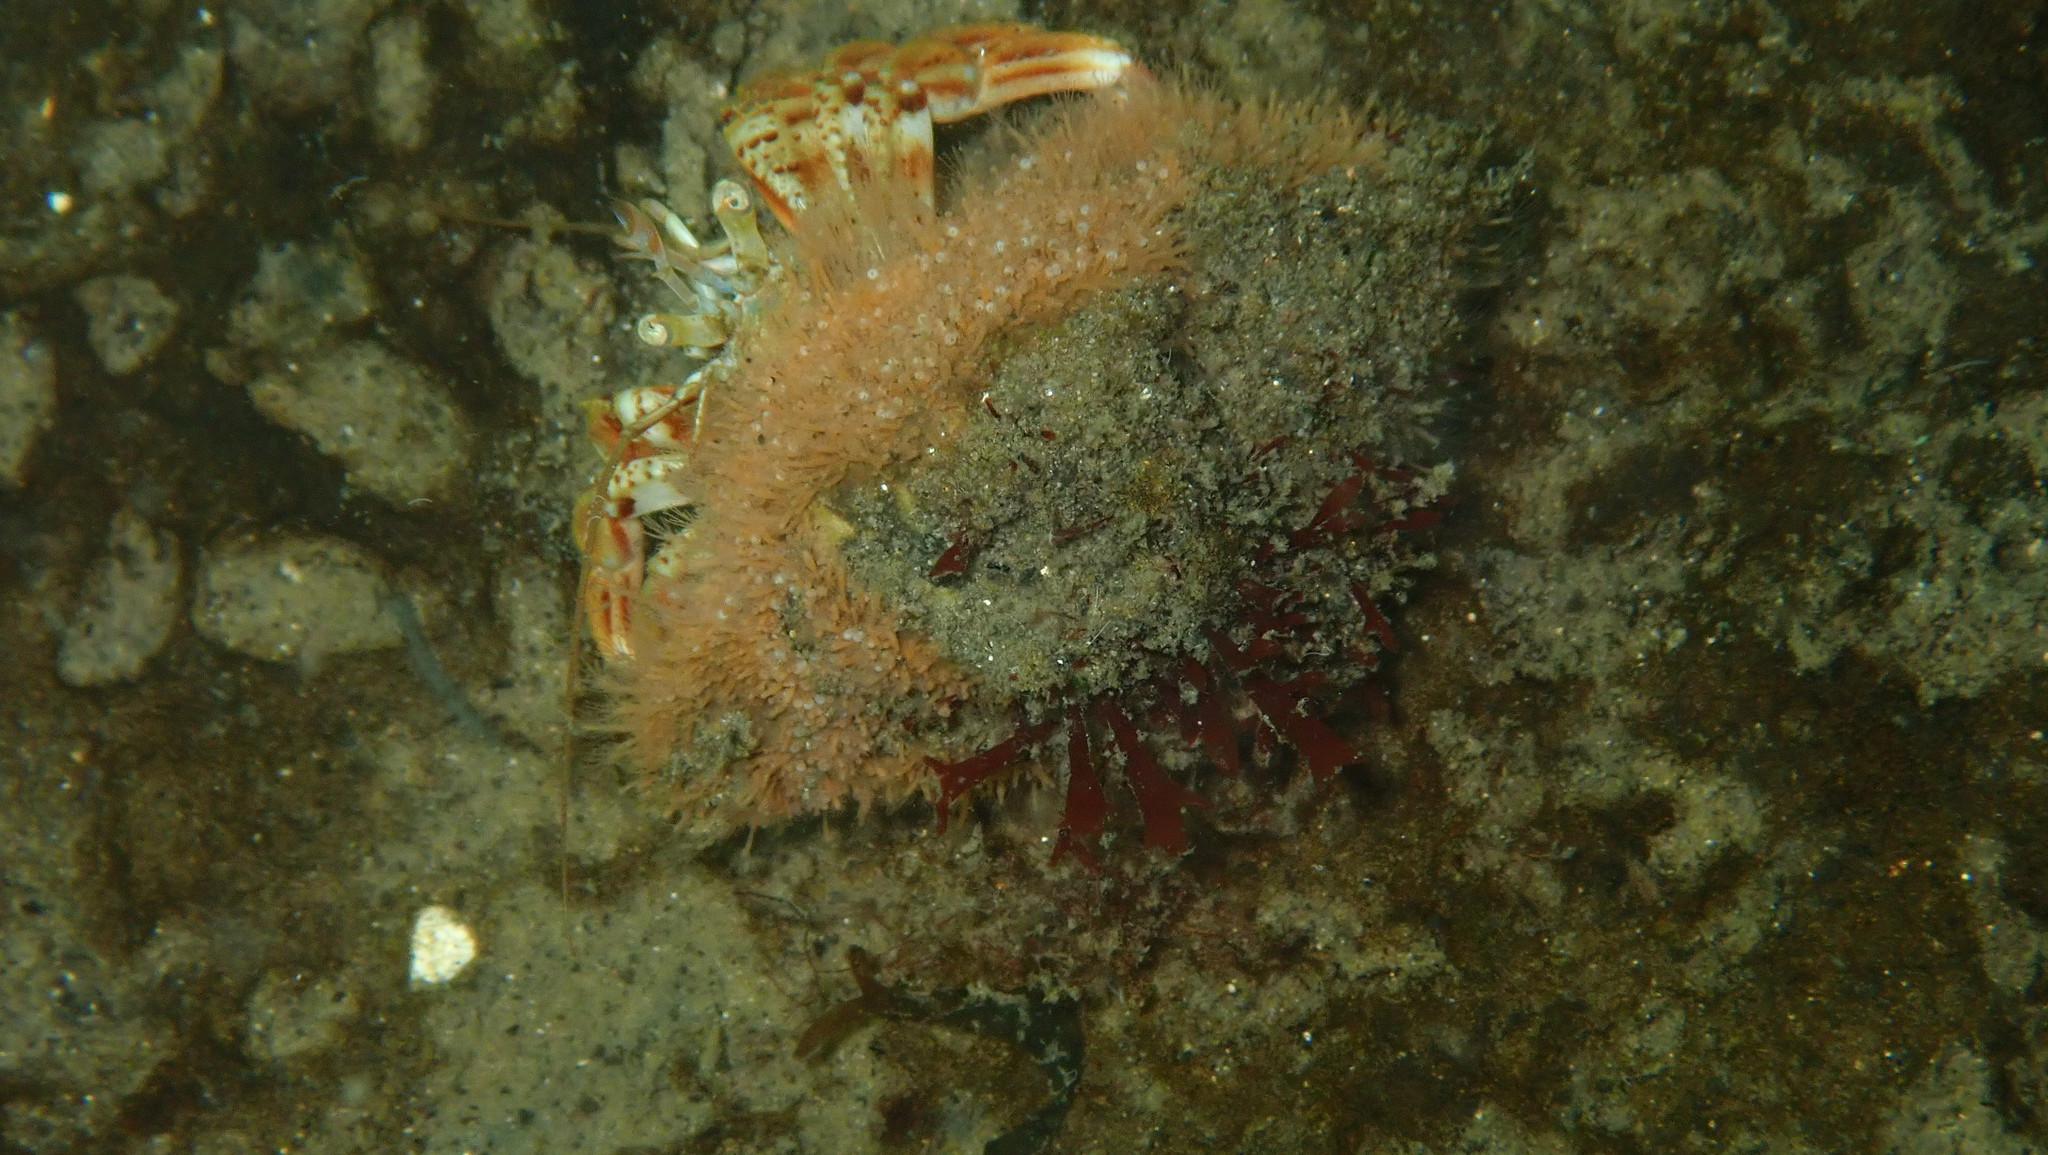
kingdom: Animalia
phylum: Arthropoda
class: Malacostraca
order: Decapoda
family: Paguridae
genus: Pagurus
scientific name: Pagurus bernhardus
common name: Hermit crab
